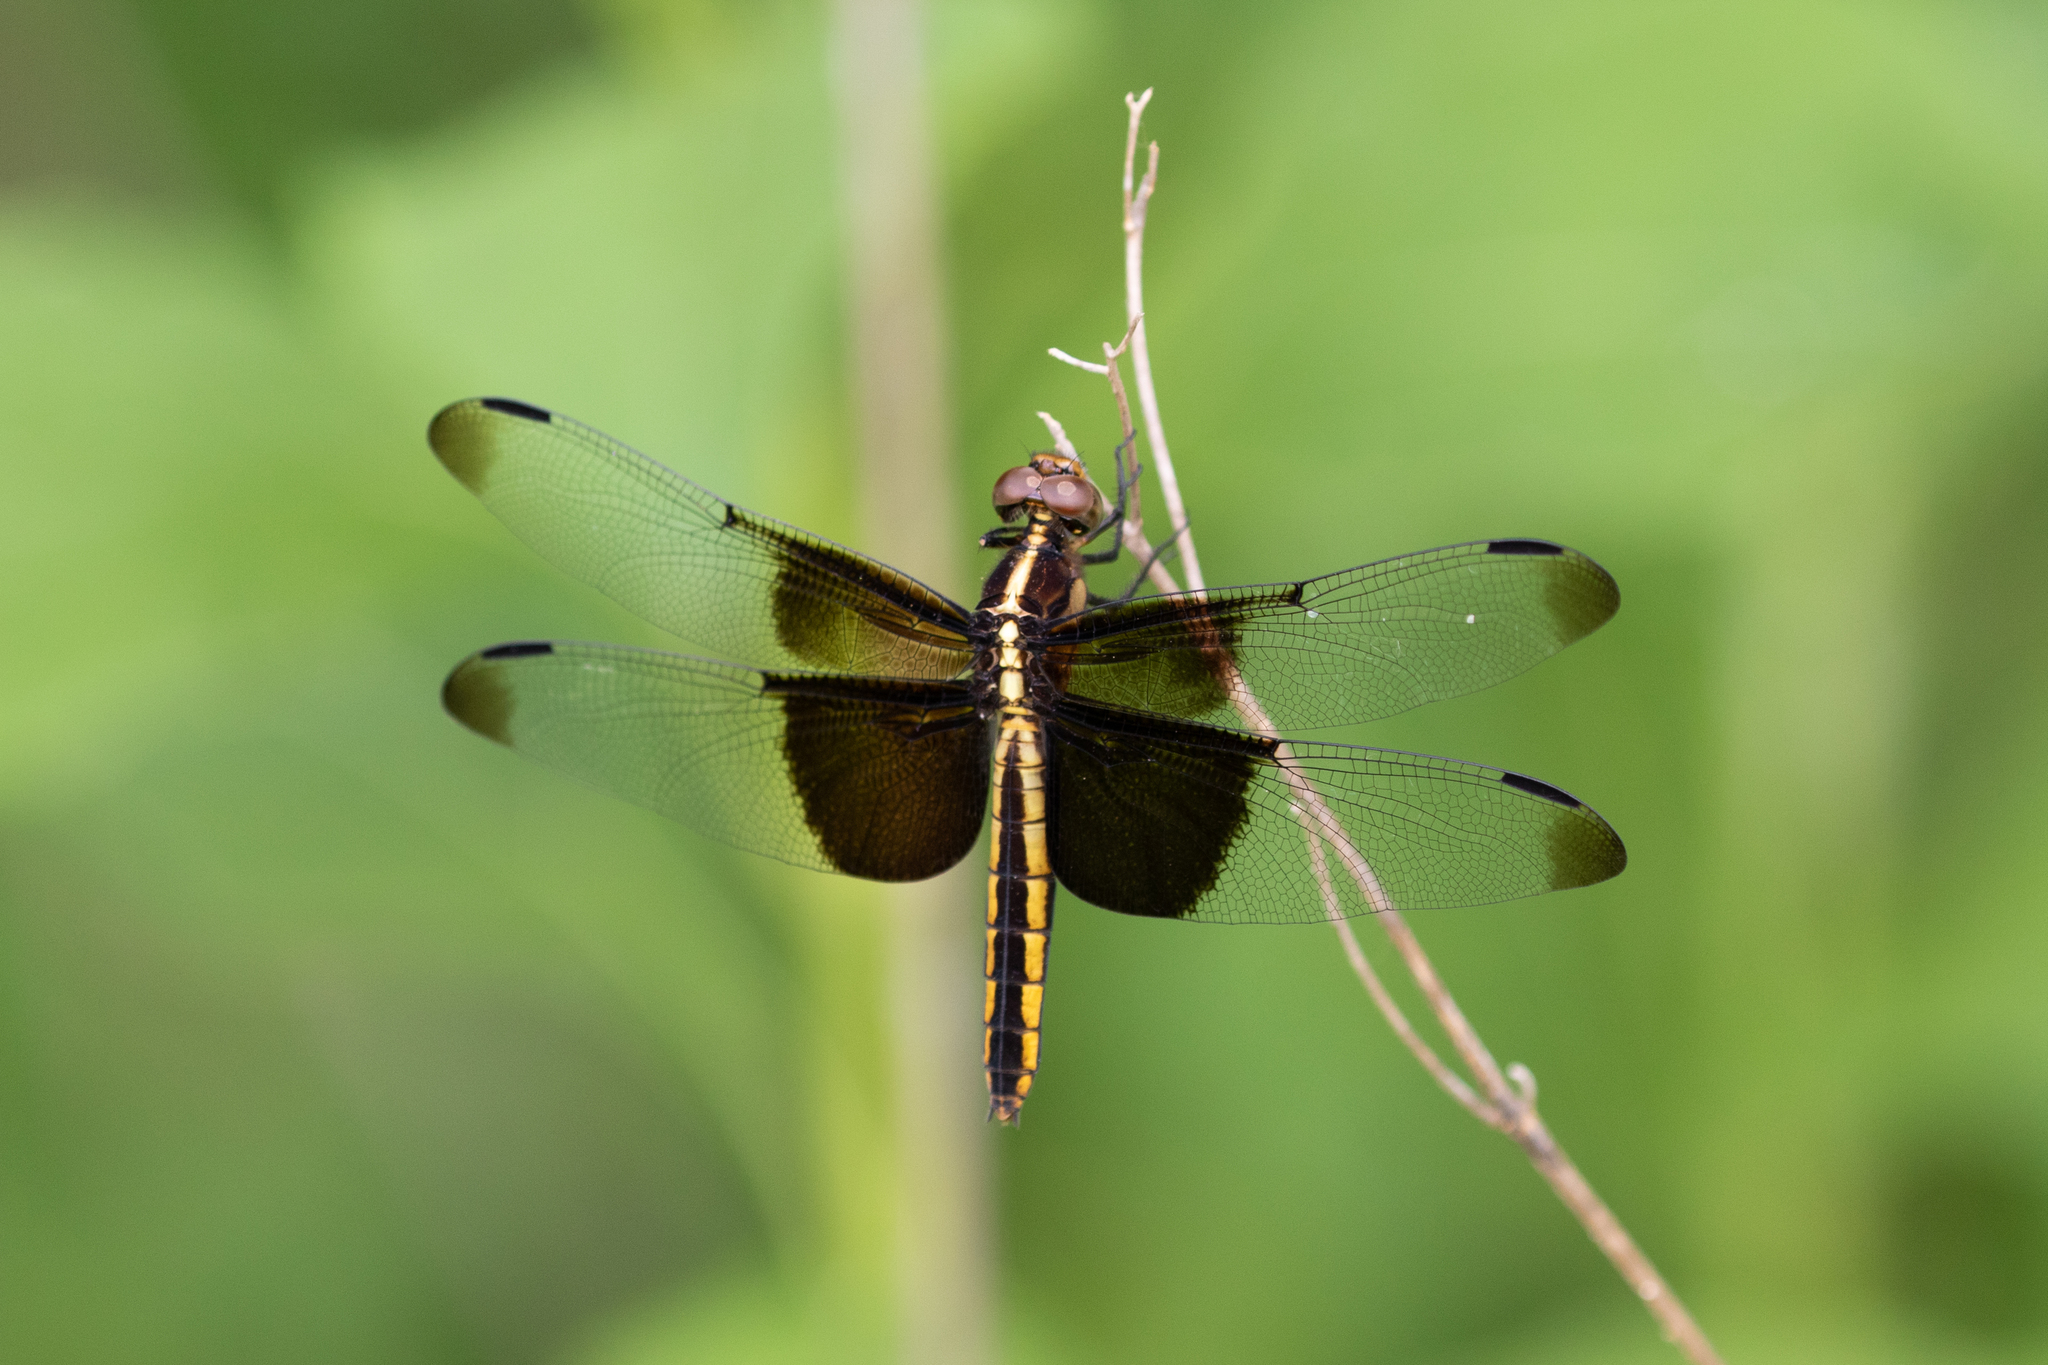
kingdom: Animalia
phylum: Arthropoda
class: Insecta
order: Odonata
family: Libellulidae
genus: Libellula
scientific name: Libellula luctuosa
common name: Widow skimmer
